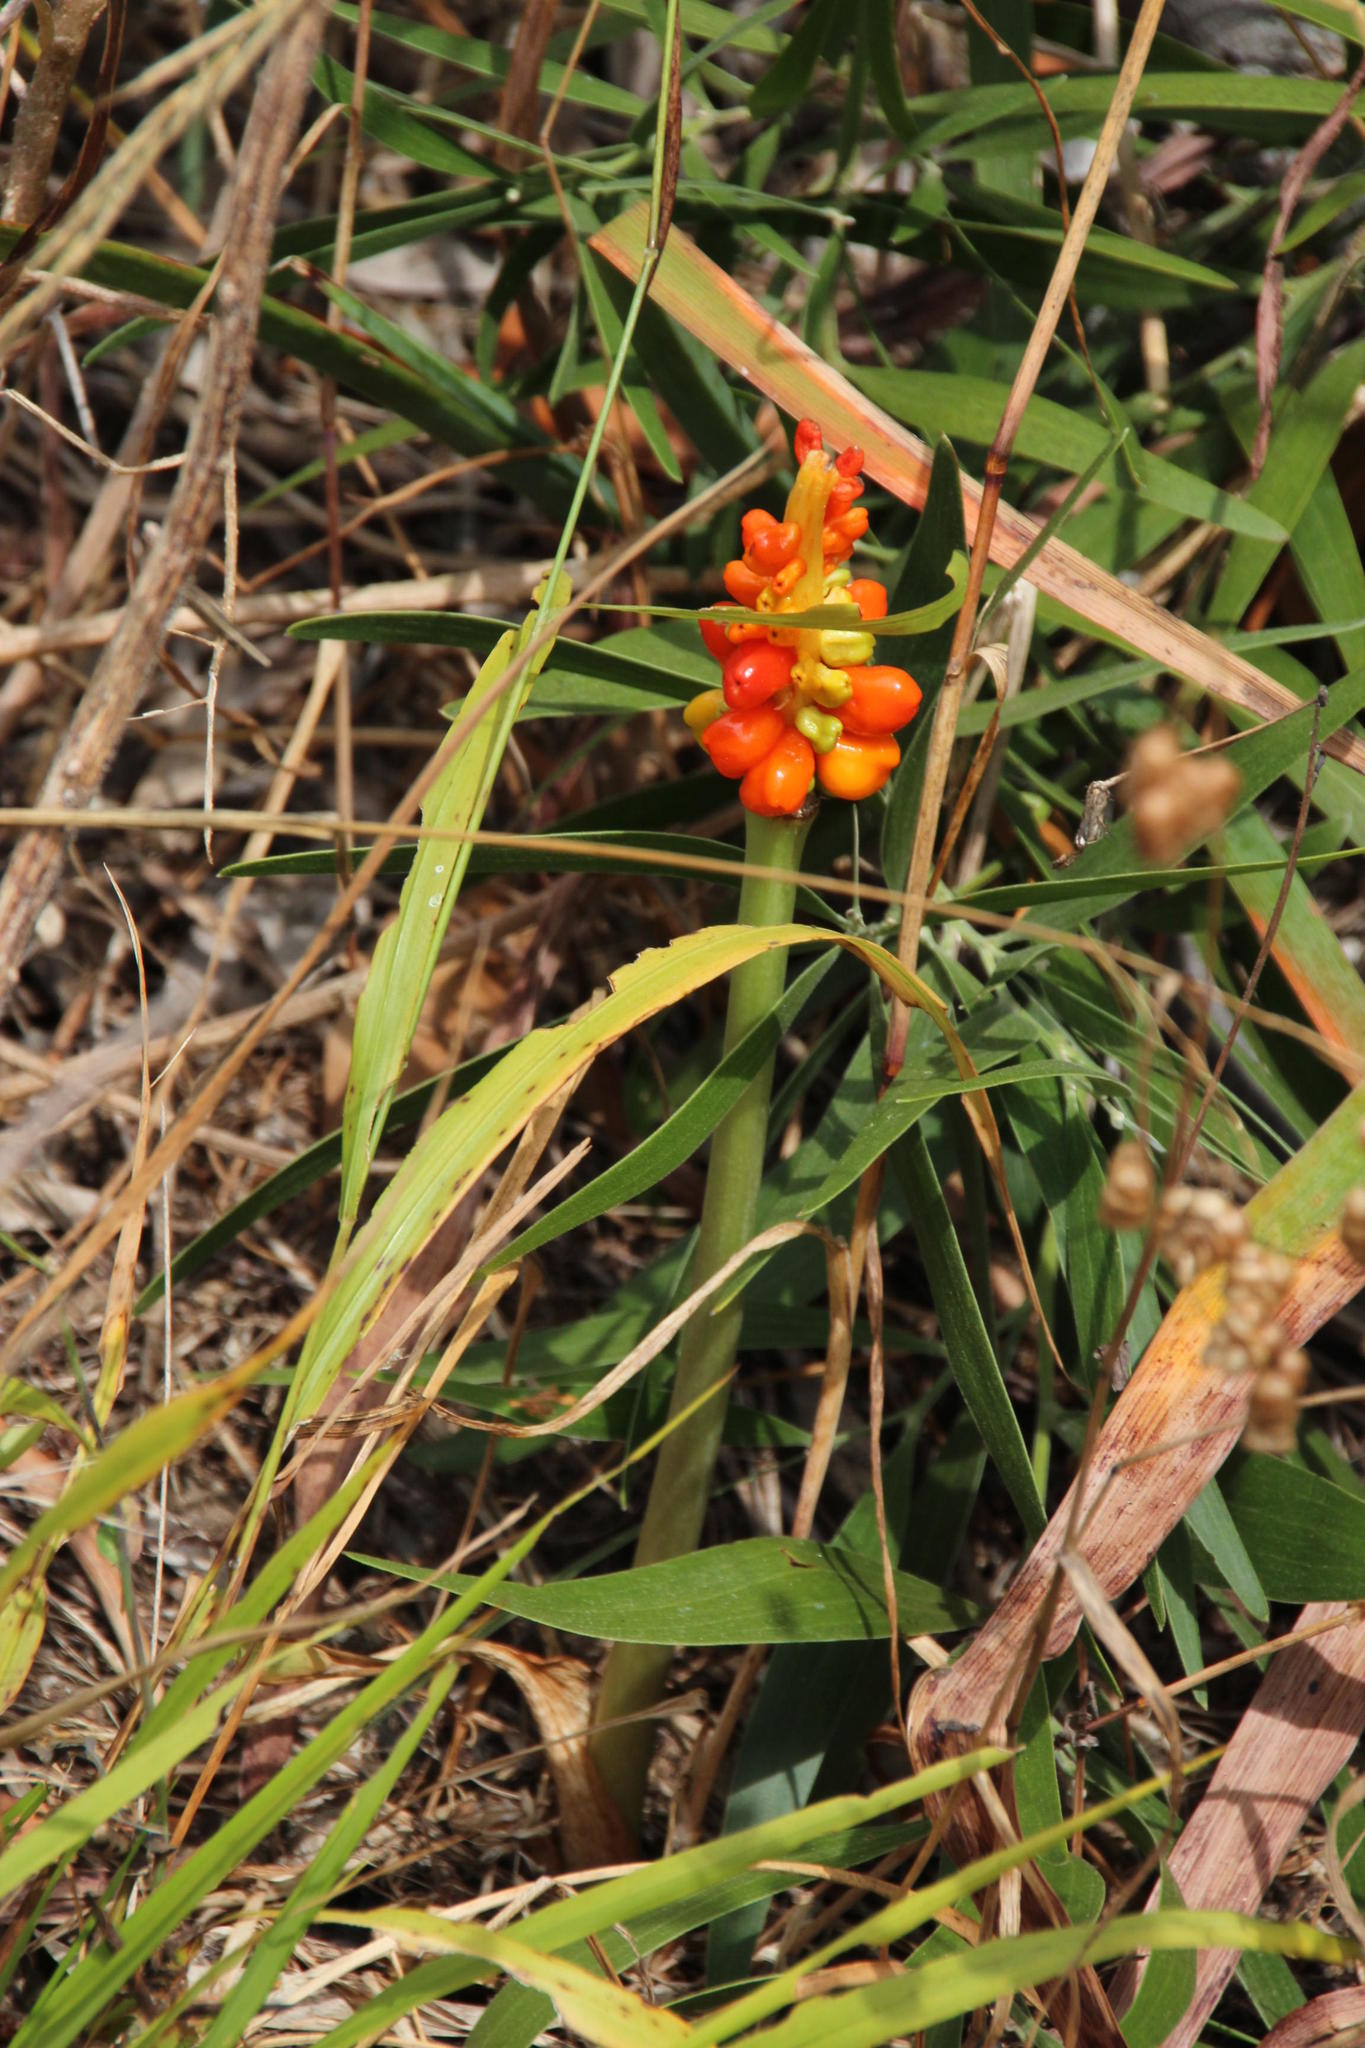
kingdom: Plantae
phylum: Tracheophyta
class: Liliopsida
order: Alismatales
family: Araceae
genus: Arum
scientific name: Arum italicum
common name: Italian lords-and-ladies
